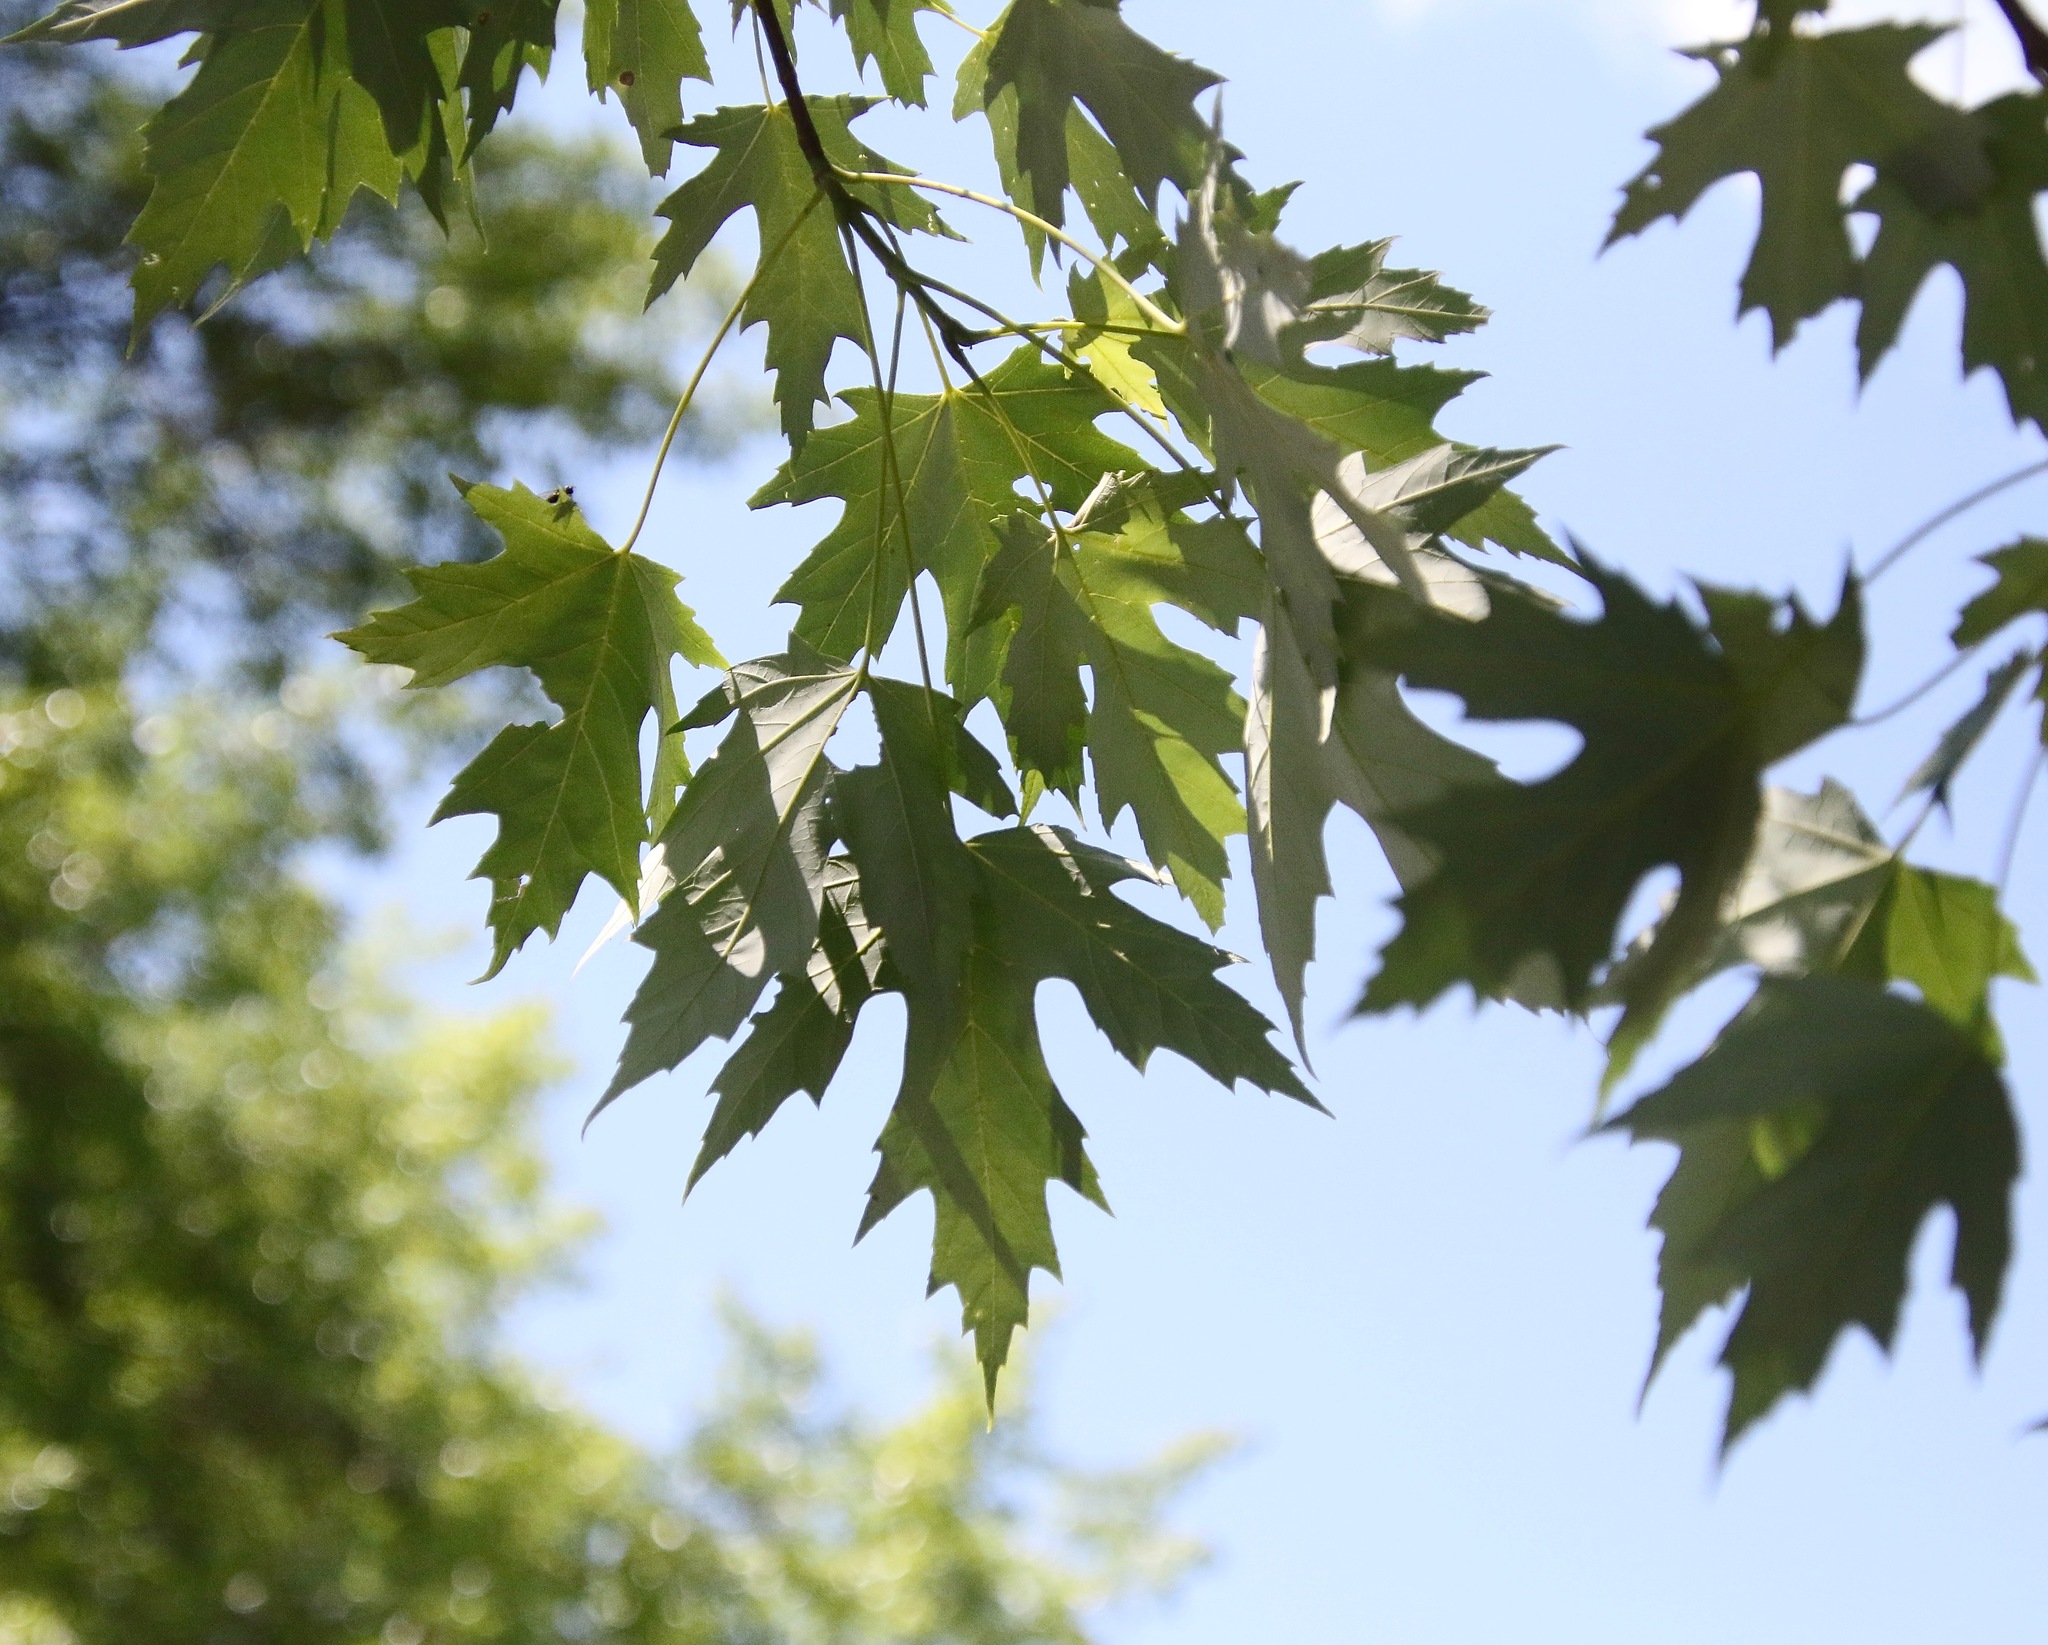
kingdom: Plantae
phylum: Tracheophyta
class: Magnoliopsida
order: Sapindales
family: Sapindaceae
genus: Acer
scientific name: Acer saccharinum
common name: Silver maple
